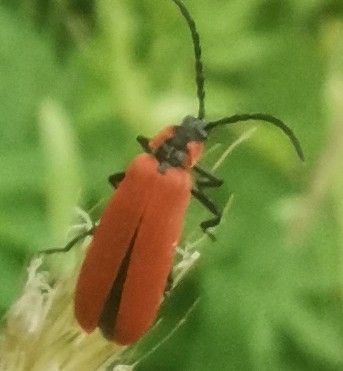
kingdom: Animalia
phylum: Arthropoda
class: Insecta
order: Coleoptera
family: Lycidae
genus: Lygistopterus
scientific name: Lygistopterus sanguineus
